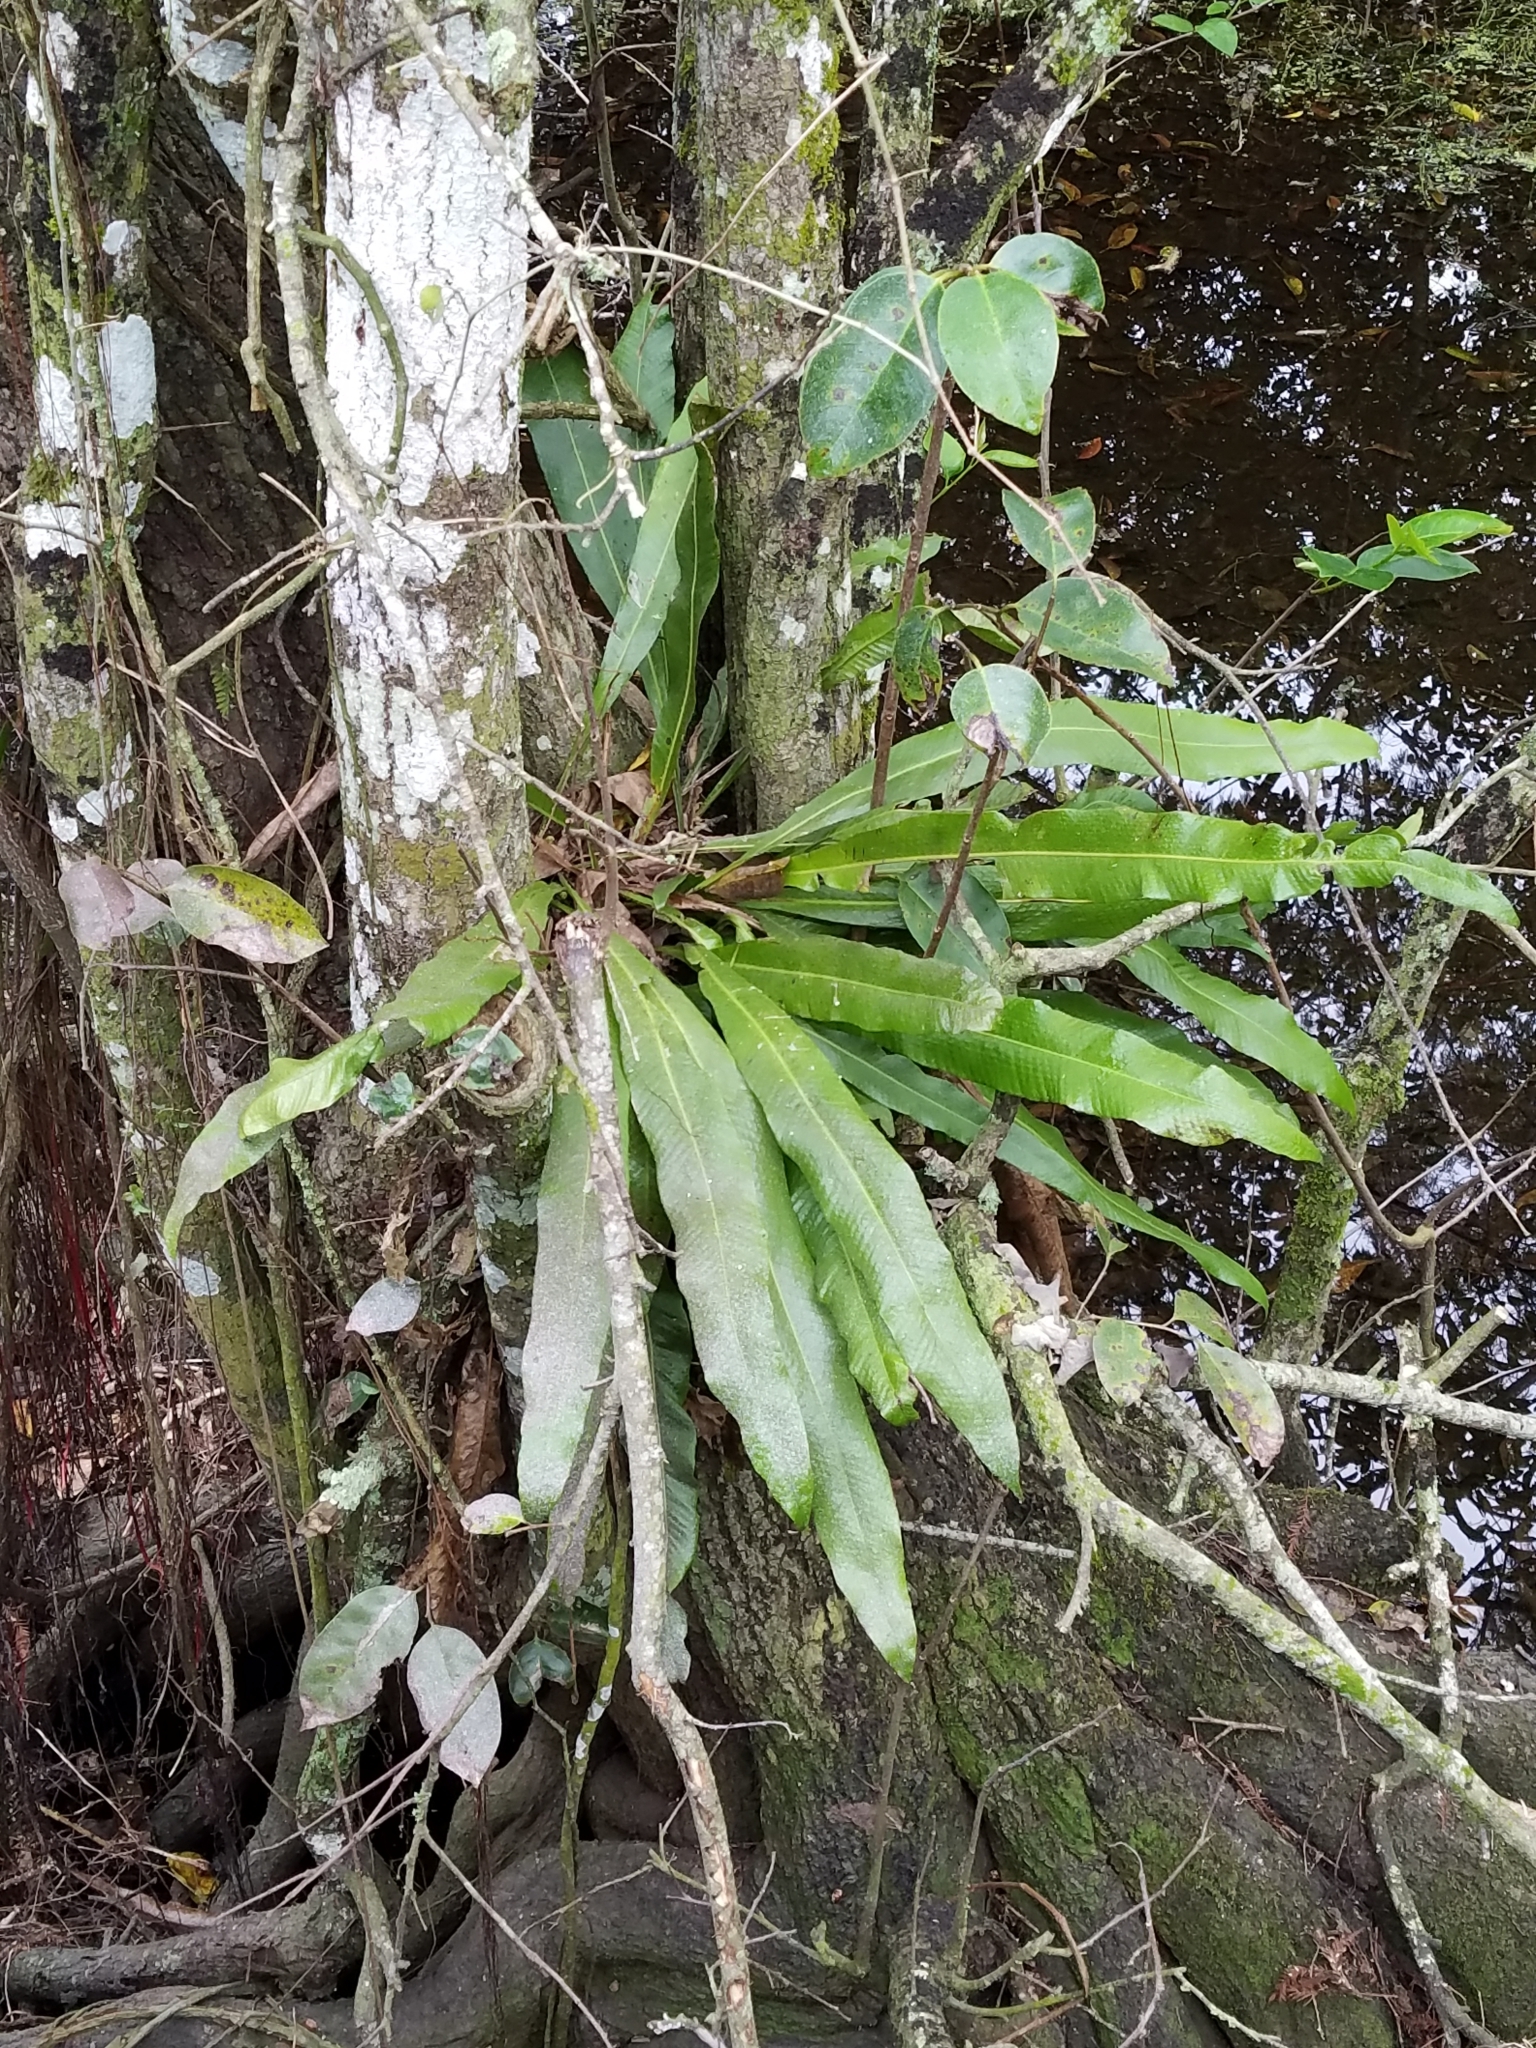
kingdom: Plantae
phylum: Tracheophyta
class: Polypodiopsida
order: Polypodiales
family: Polypodiaceae
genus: Campyloneurum
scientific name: Campyloneurum phyllitidis
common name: Cow-tongue fern
